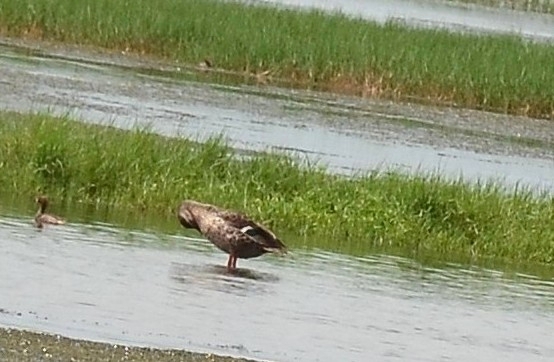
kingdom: Animalia
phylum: Chordata
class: Aves
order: Anseriformes
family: Anatidae
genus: Anas
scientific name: Anas poecilorhyncha
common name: Indian spot-billed duck
